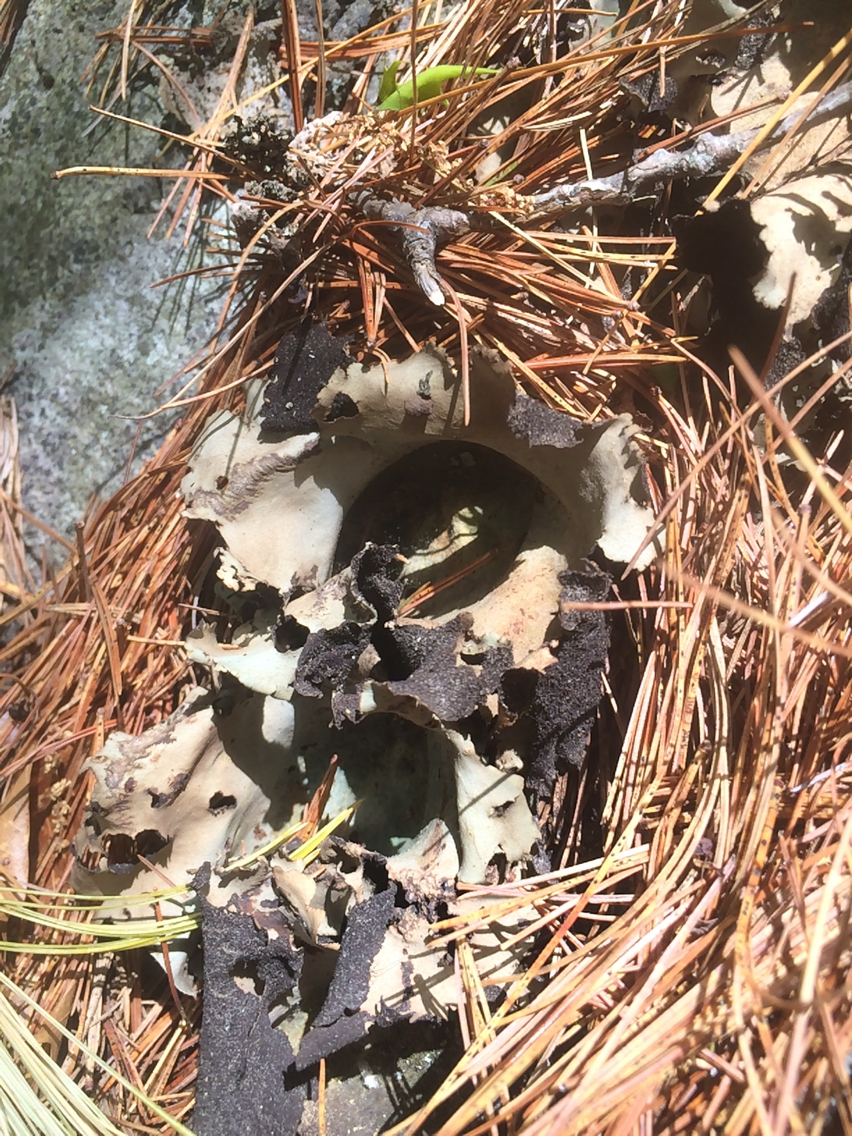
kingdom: Fungi
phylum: Ascomycota
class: Lecanoromycetes
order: Umbilicariales
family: Umbilicariaceae
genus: Umbilicaria
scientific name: Umbilicaria mammulata
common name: Smooth rock tripe
